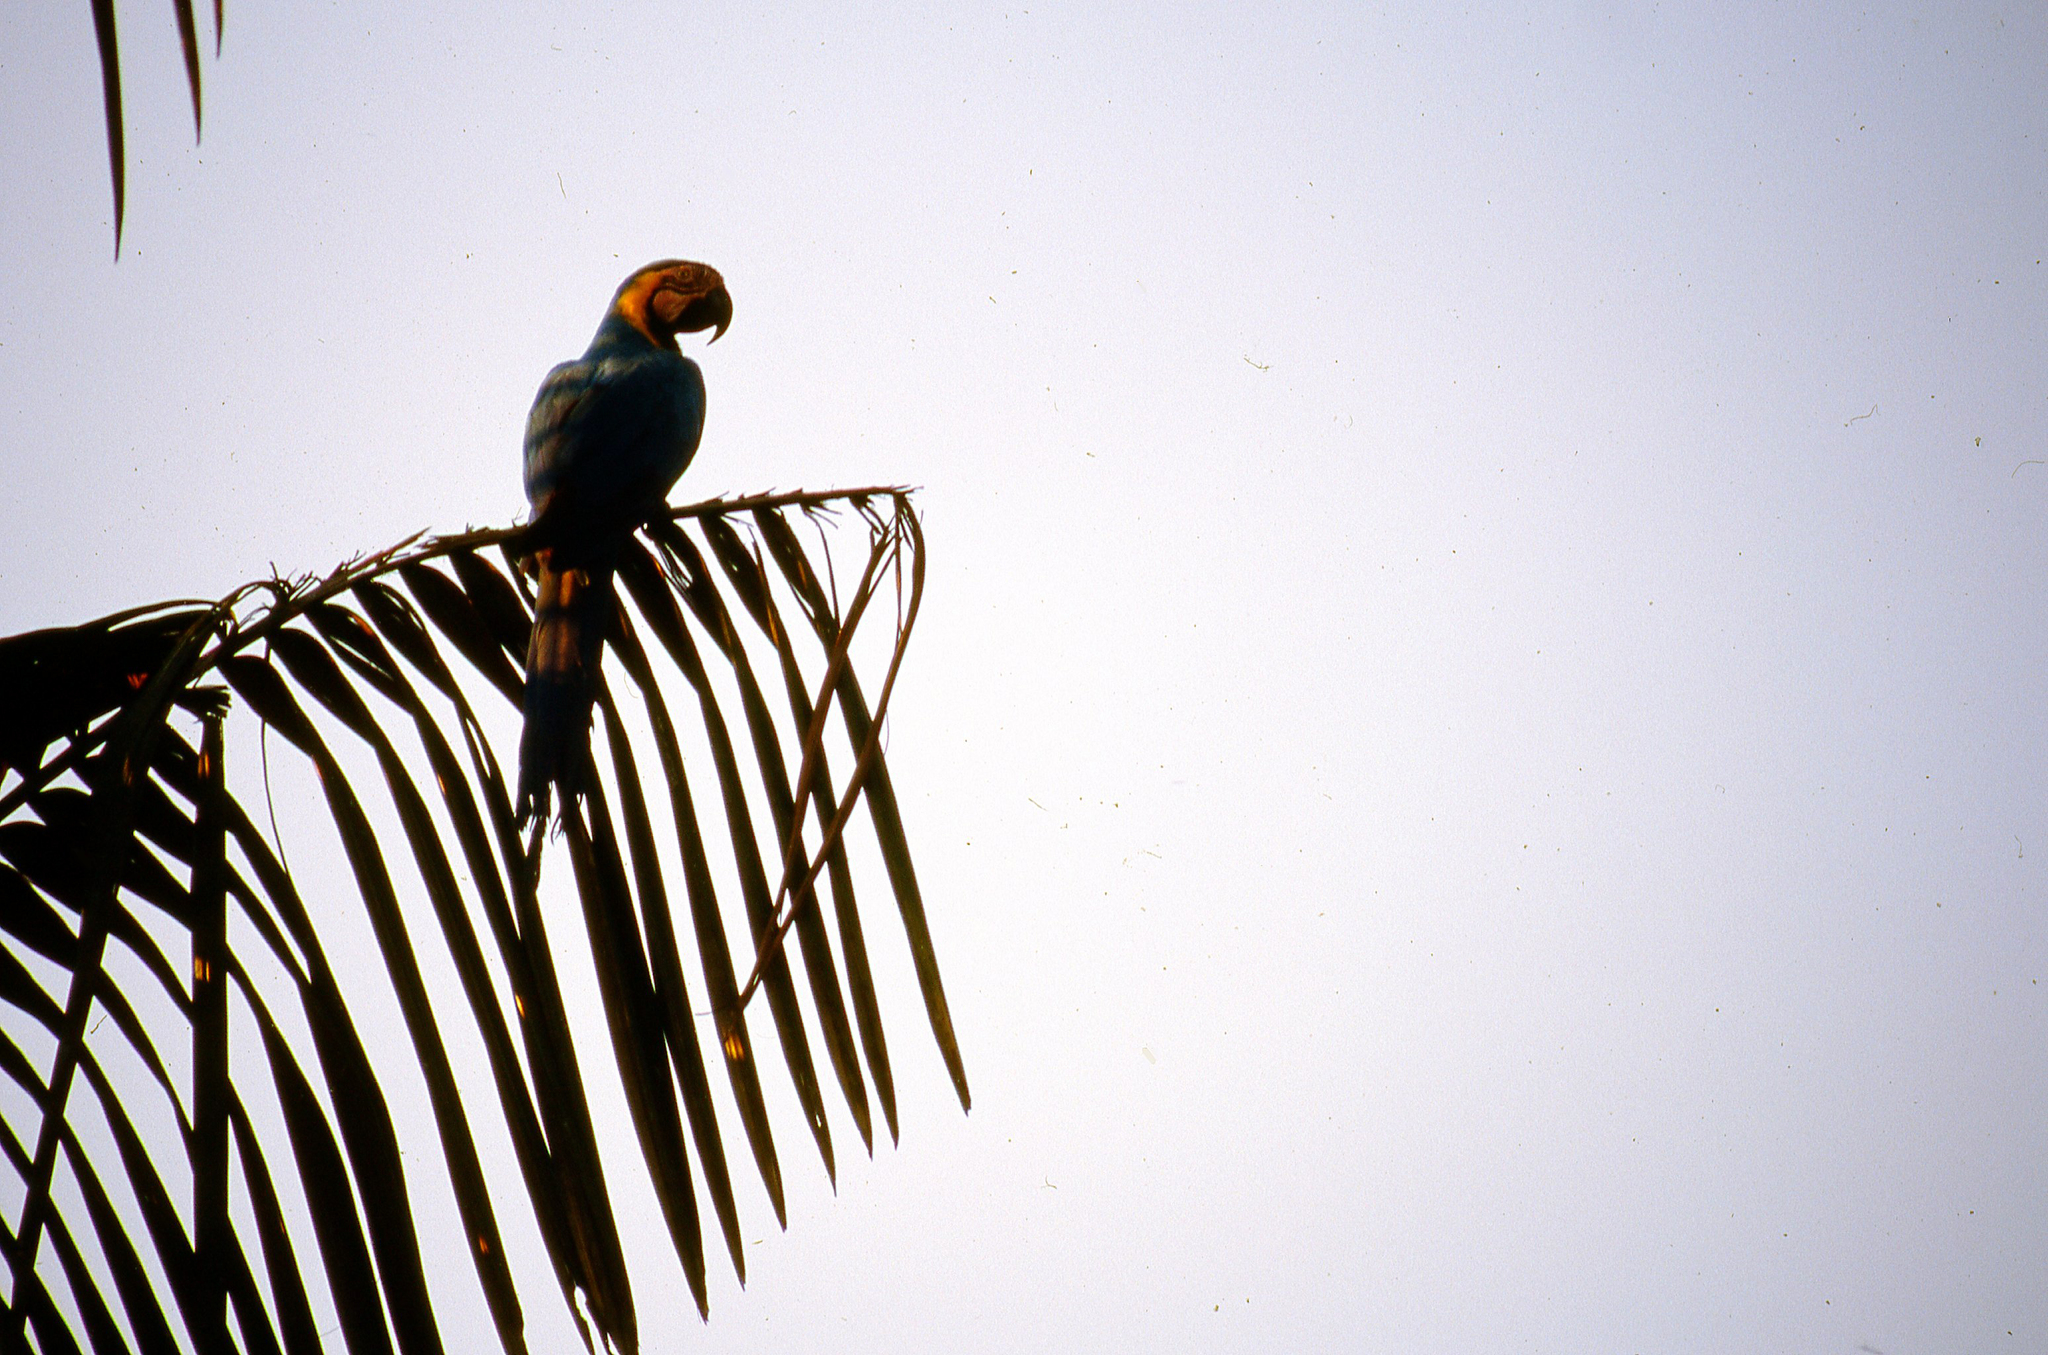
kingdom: Animalia
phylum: Chordata
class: Aves
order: Psittaciformes
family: Psittacidae
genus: Ara
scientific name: Ara ararauna
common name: Blue-and-yellow macaw
